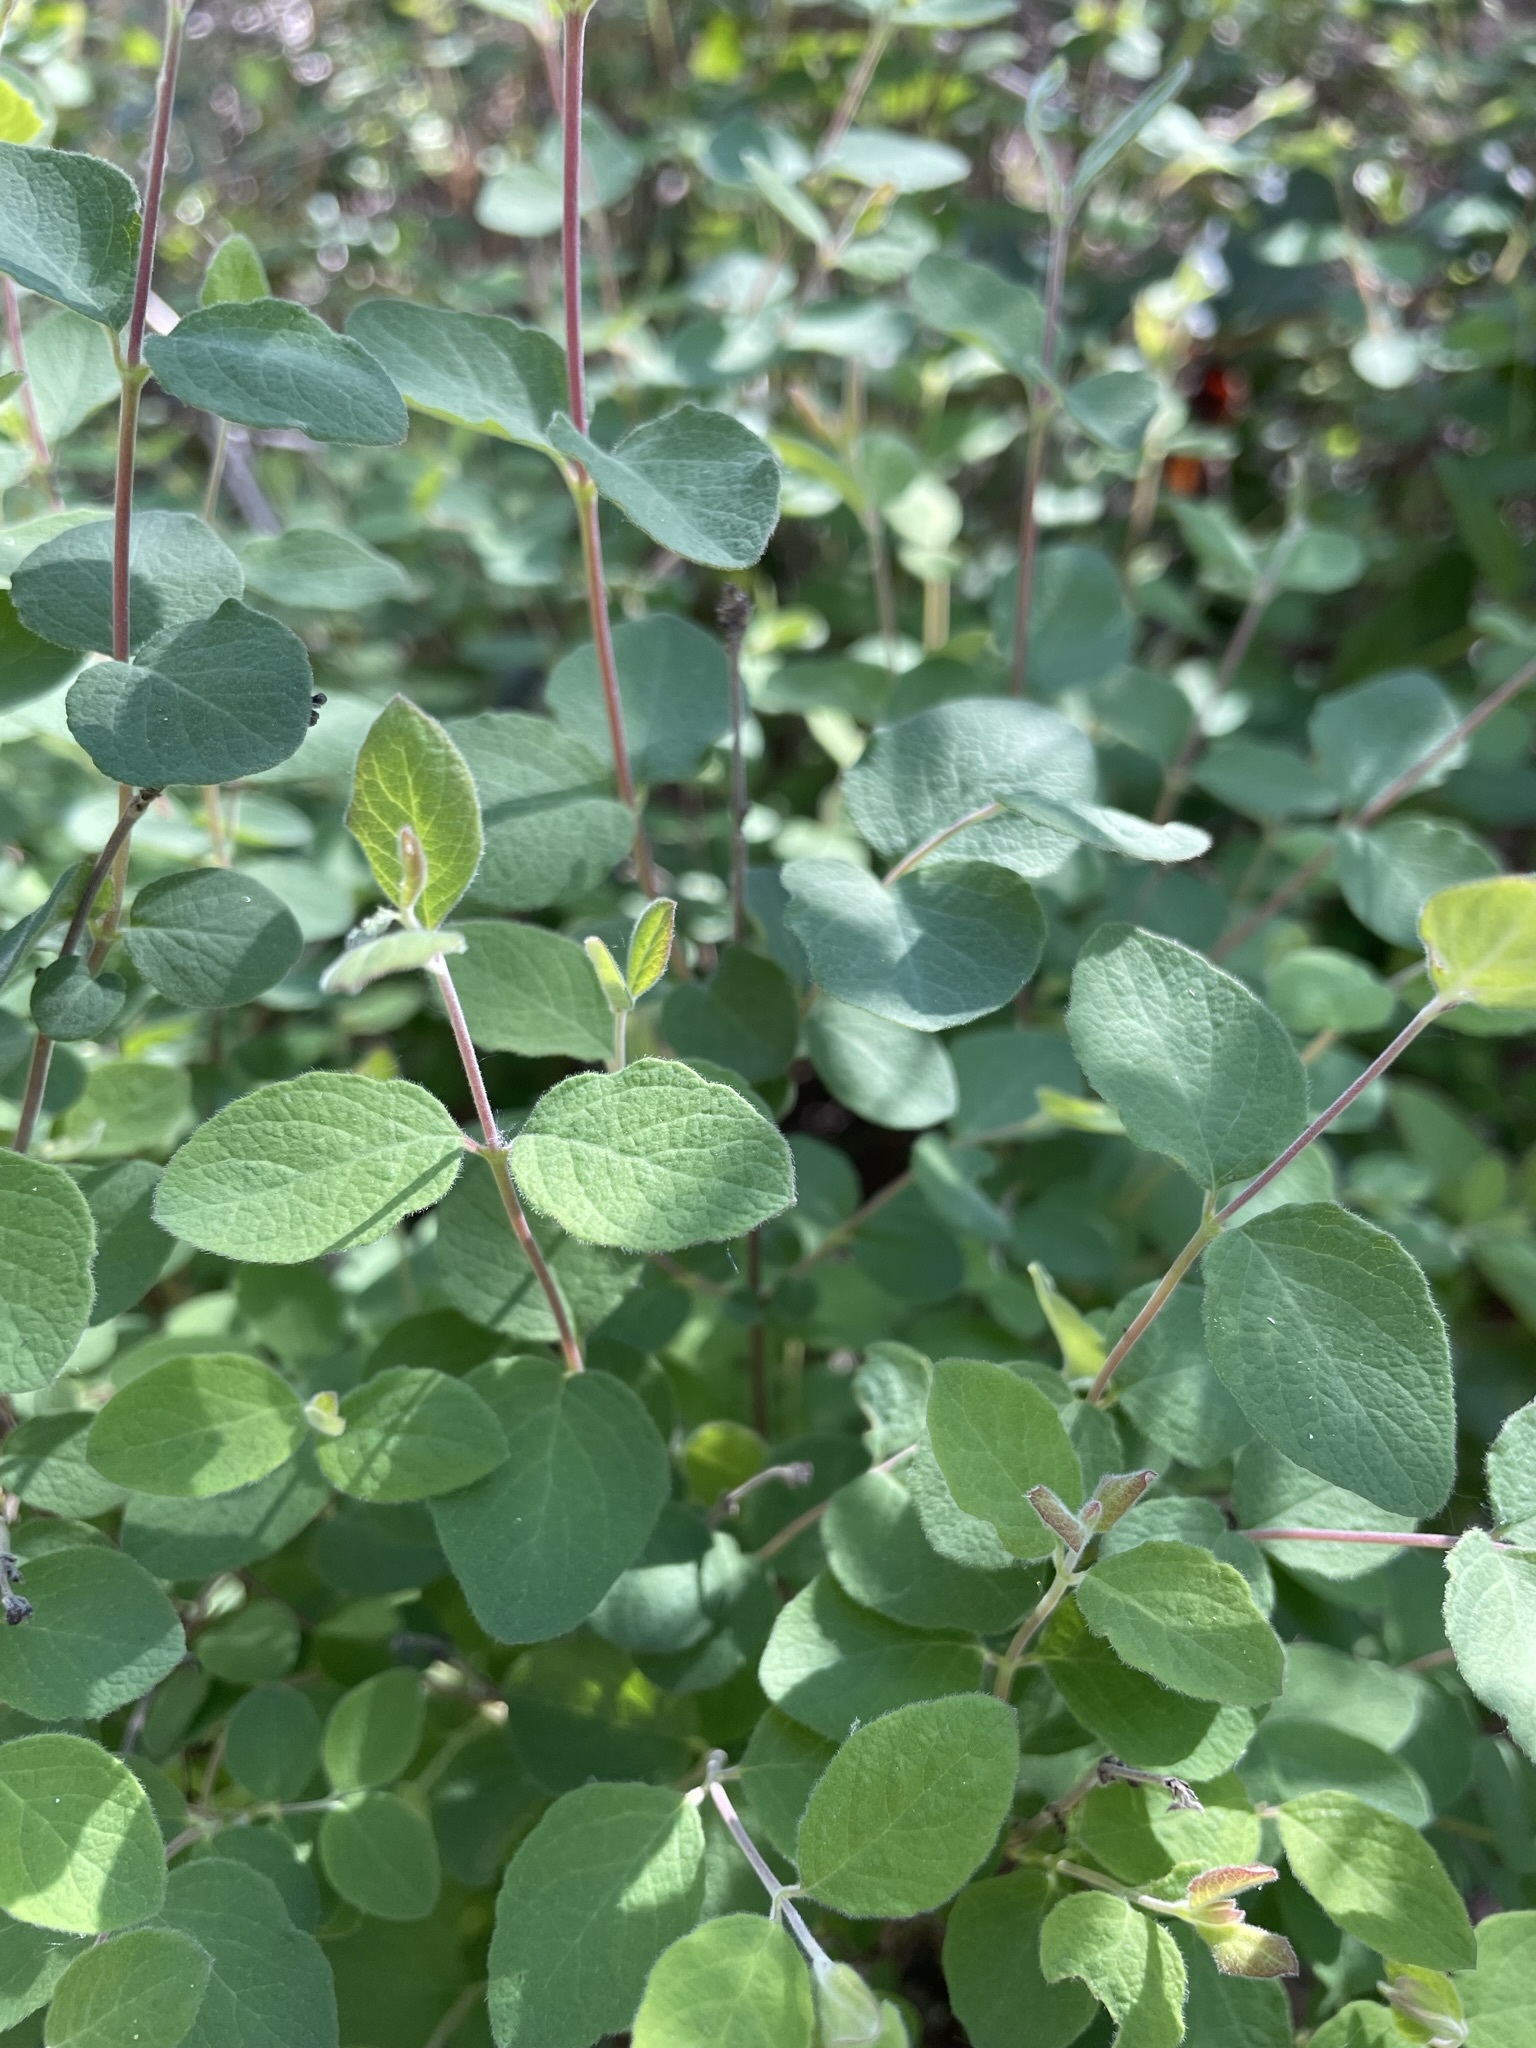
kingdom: Plantae
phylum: Tracheophyta
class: Magnoliopsida
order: Dipsacales
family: Caprifoliaceae
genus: Symphoricarpos
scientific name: Symphoricarpos mollis
